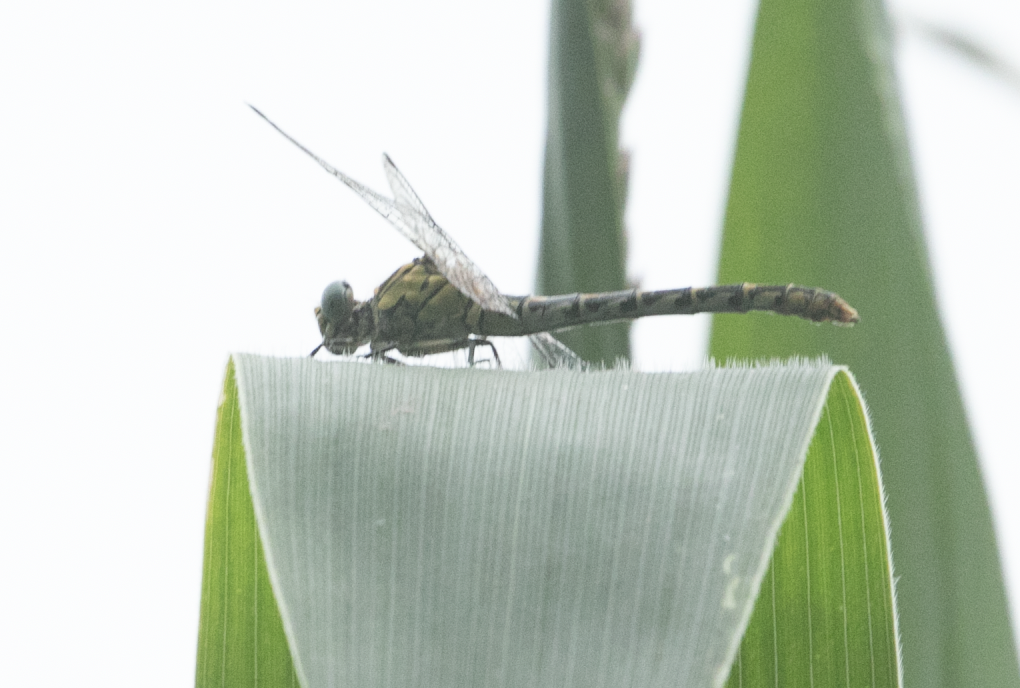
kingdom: Animalia
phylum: Arthropoda
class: Insecta
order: Odonata
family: Gomphidae
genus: Onychogomphus
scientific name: Onychogomphus forcipatus
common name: Small pincertail
